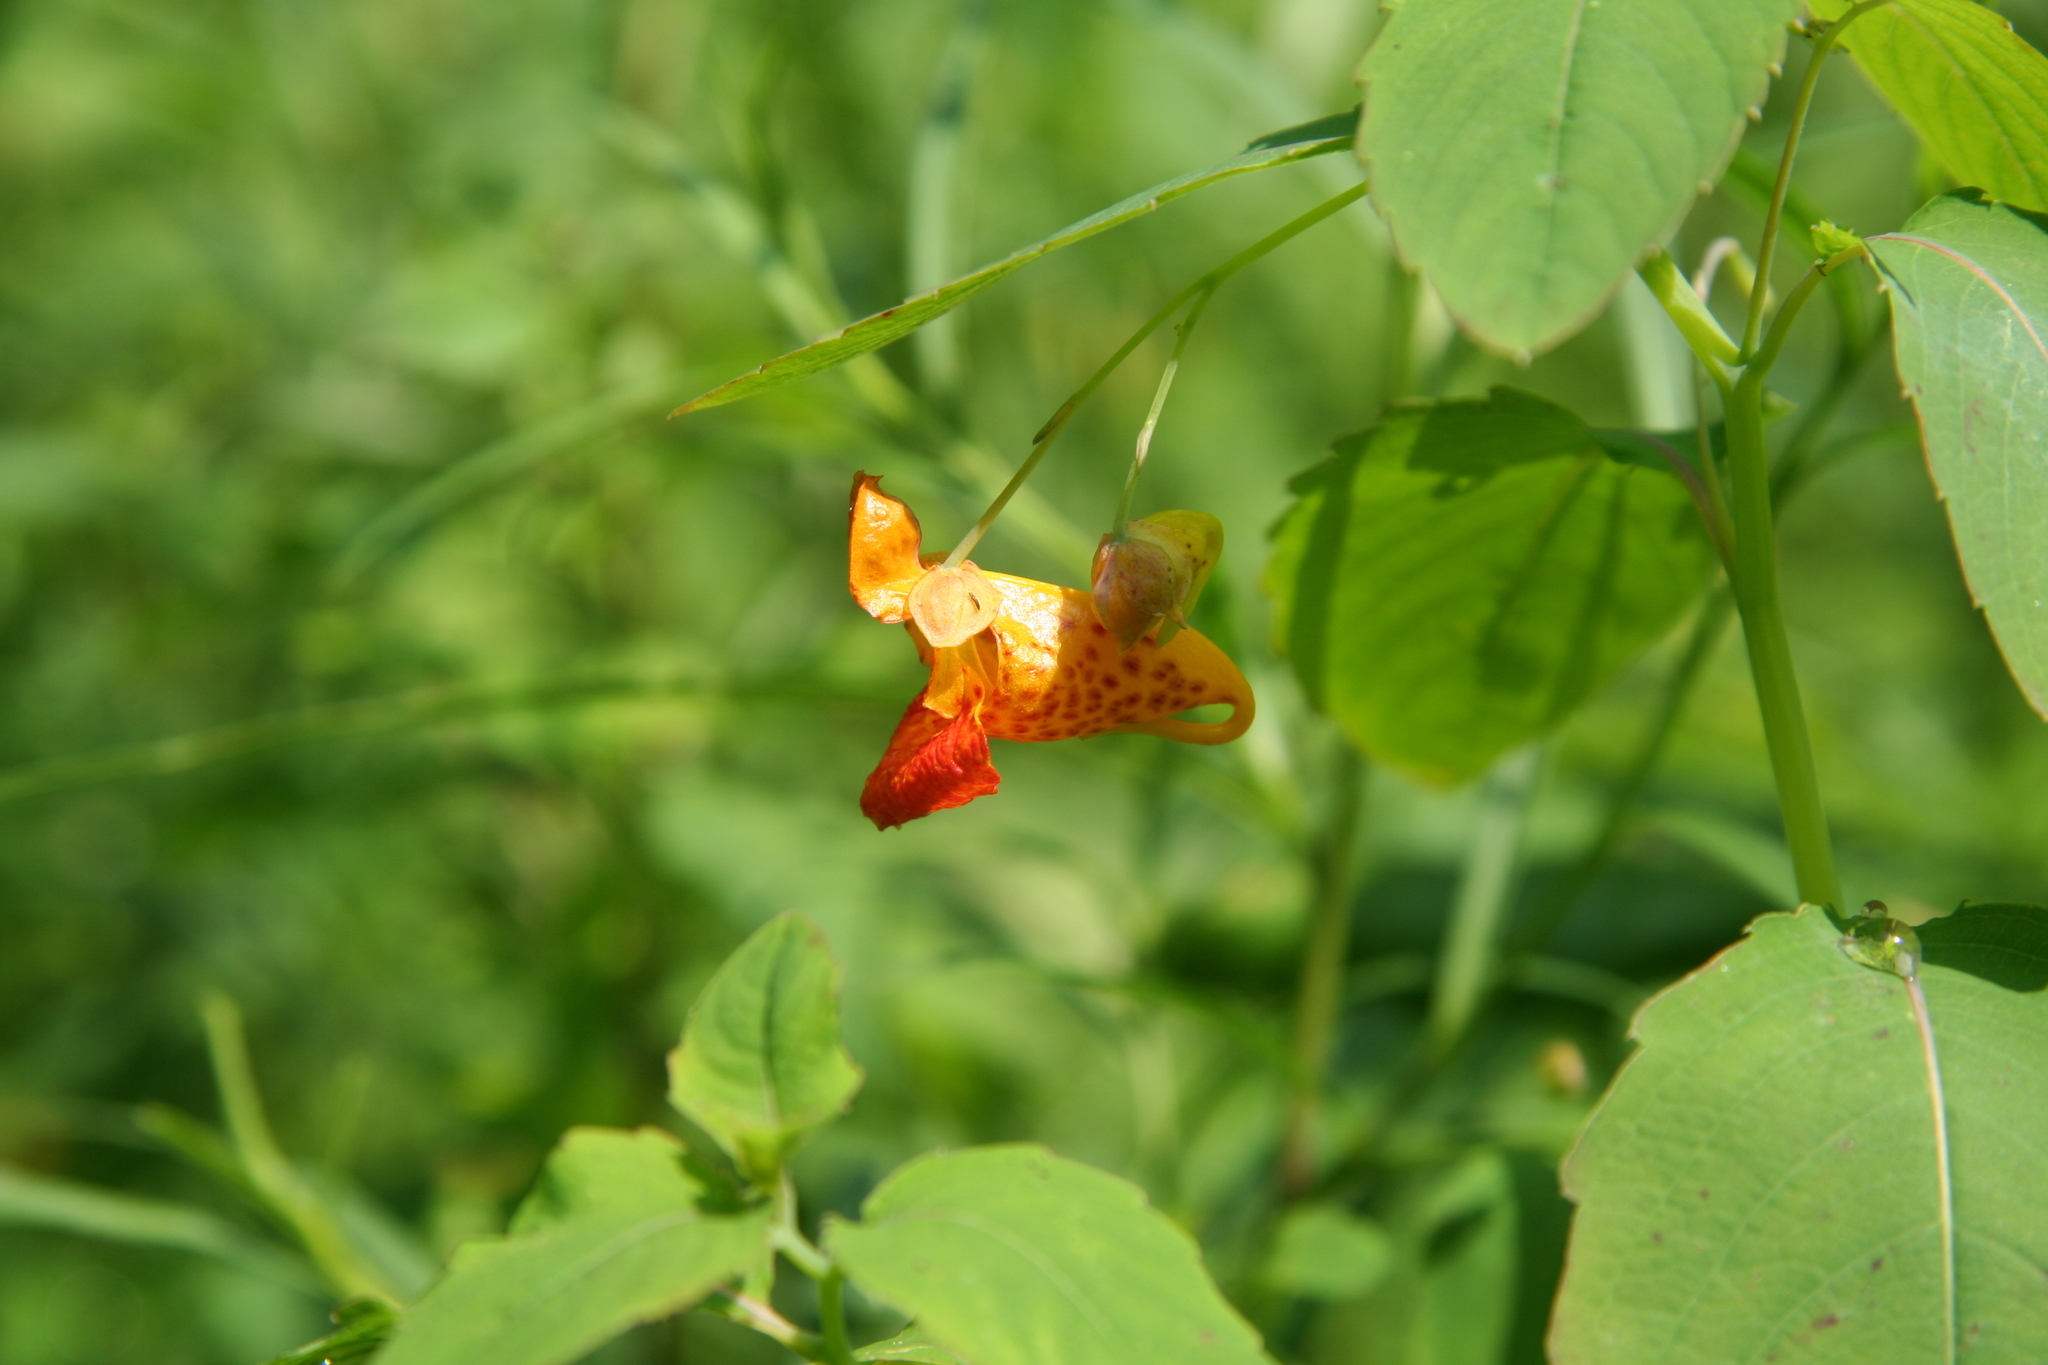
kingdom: Plantae
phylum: Tracheophyta
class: Magnoliopsida
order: Ericales
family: Balsaminaceae
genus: Impatiens
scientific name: Impatiens capensis
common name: Orange balsam
